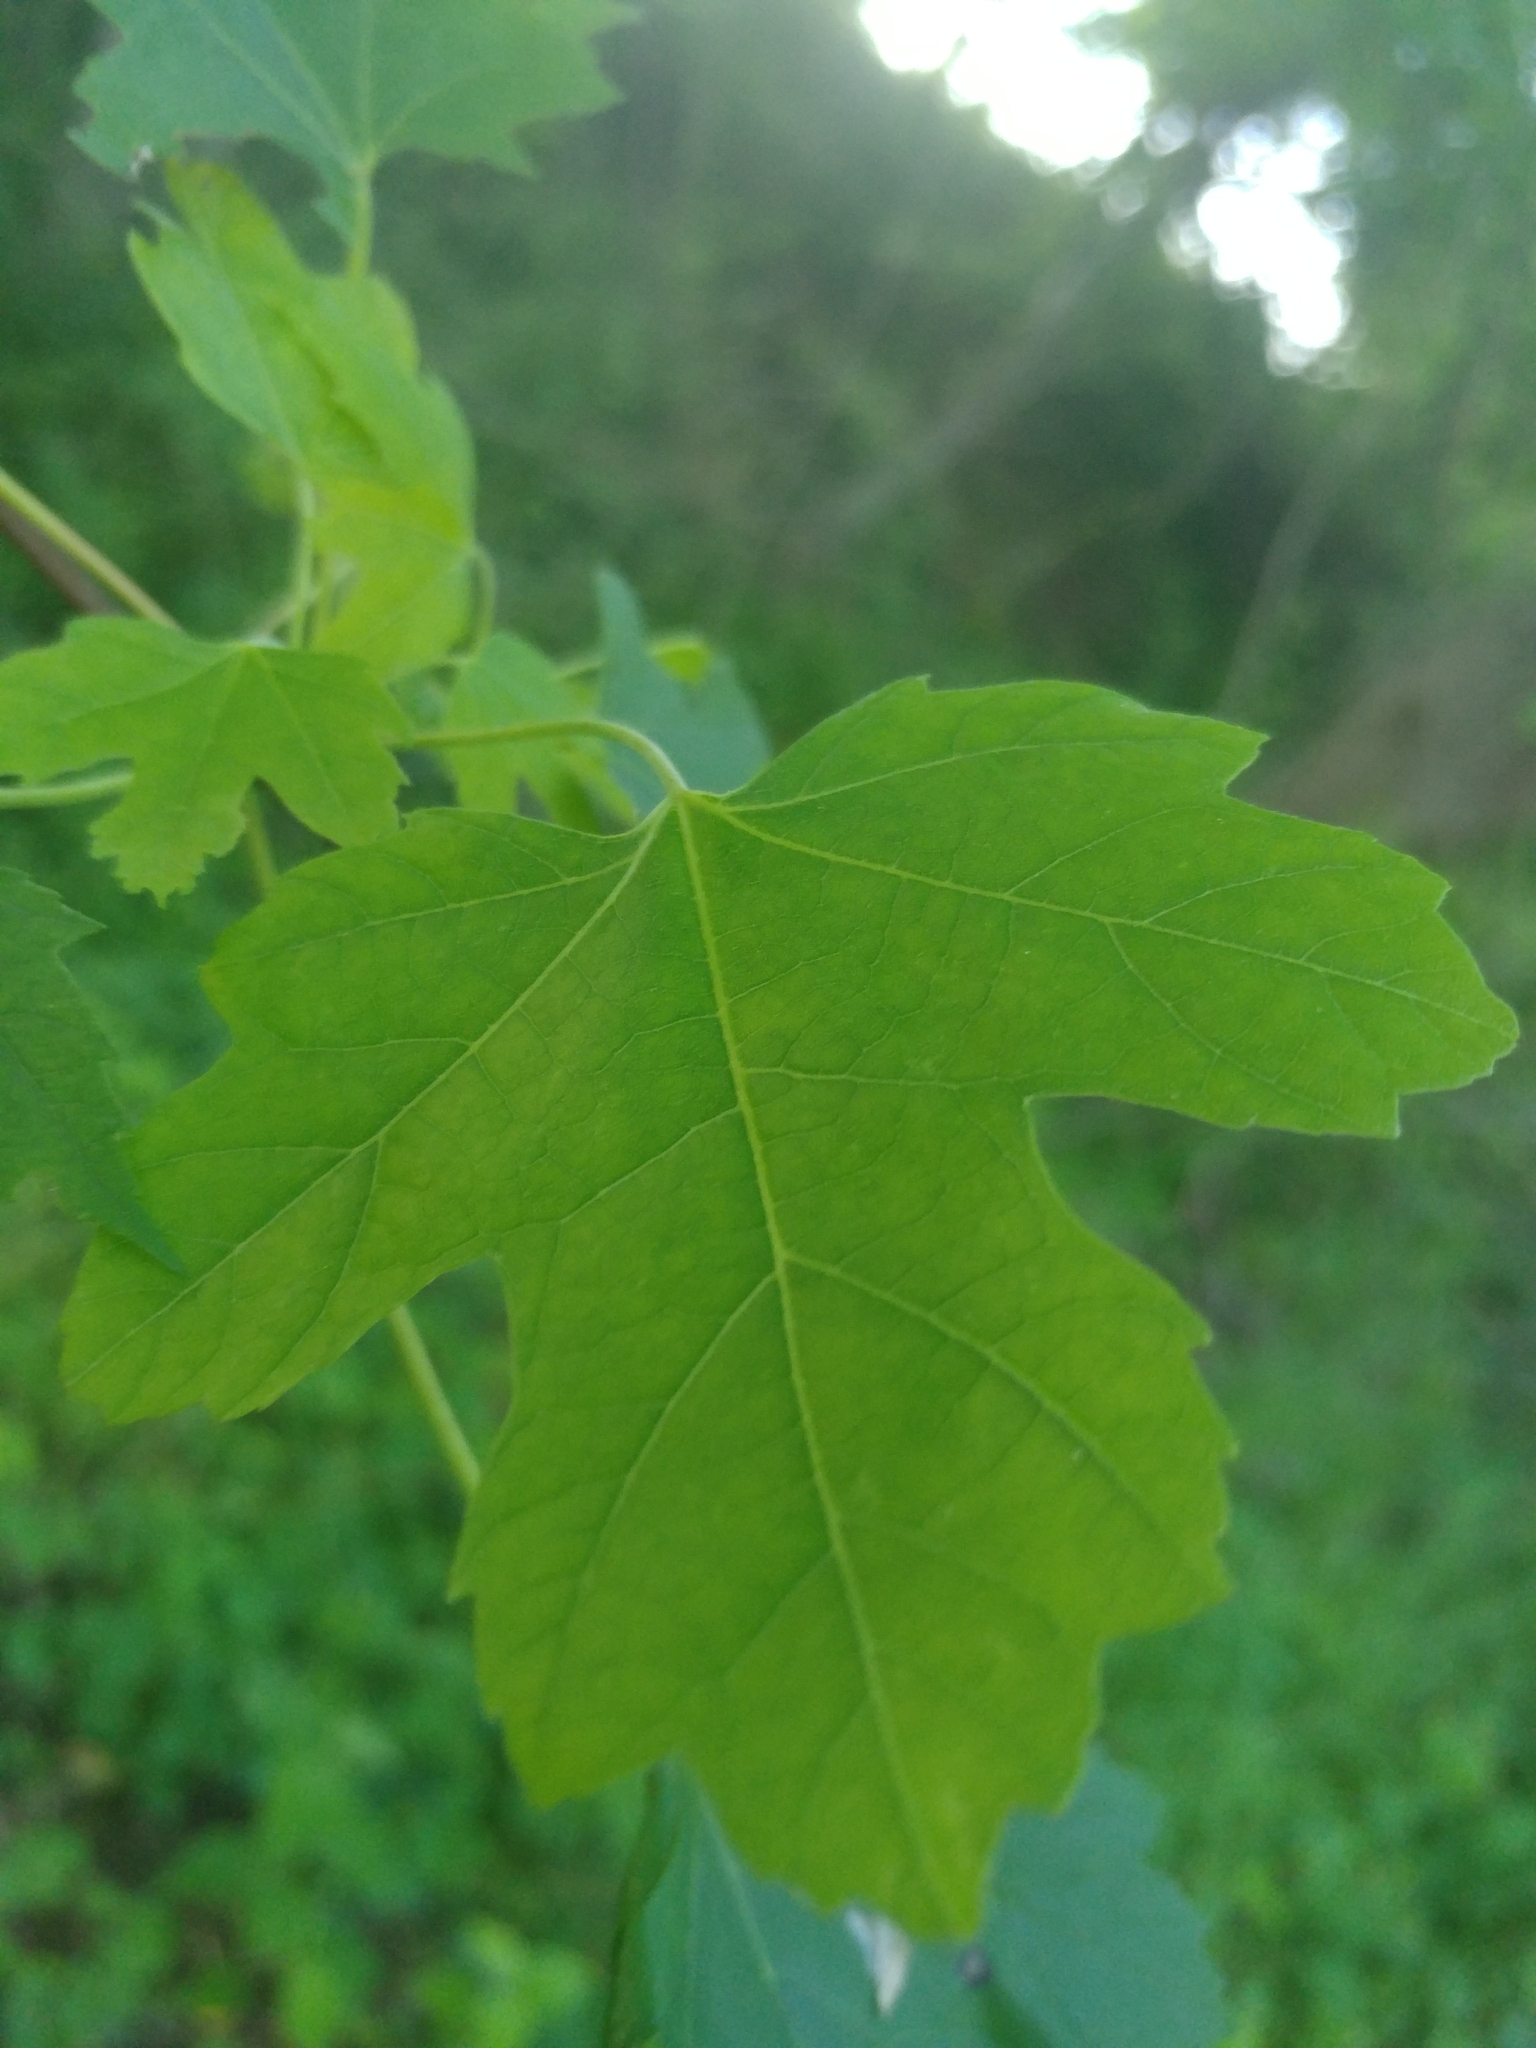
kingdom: Plantae
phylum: Tracheophyta
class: Magnoliopsida
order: Sapindales
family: Sapindaceae
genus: Acer
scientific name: Acer saccharinum
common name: Silver maple
